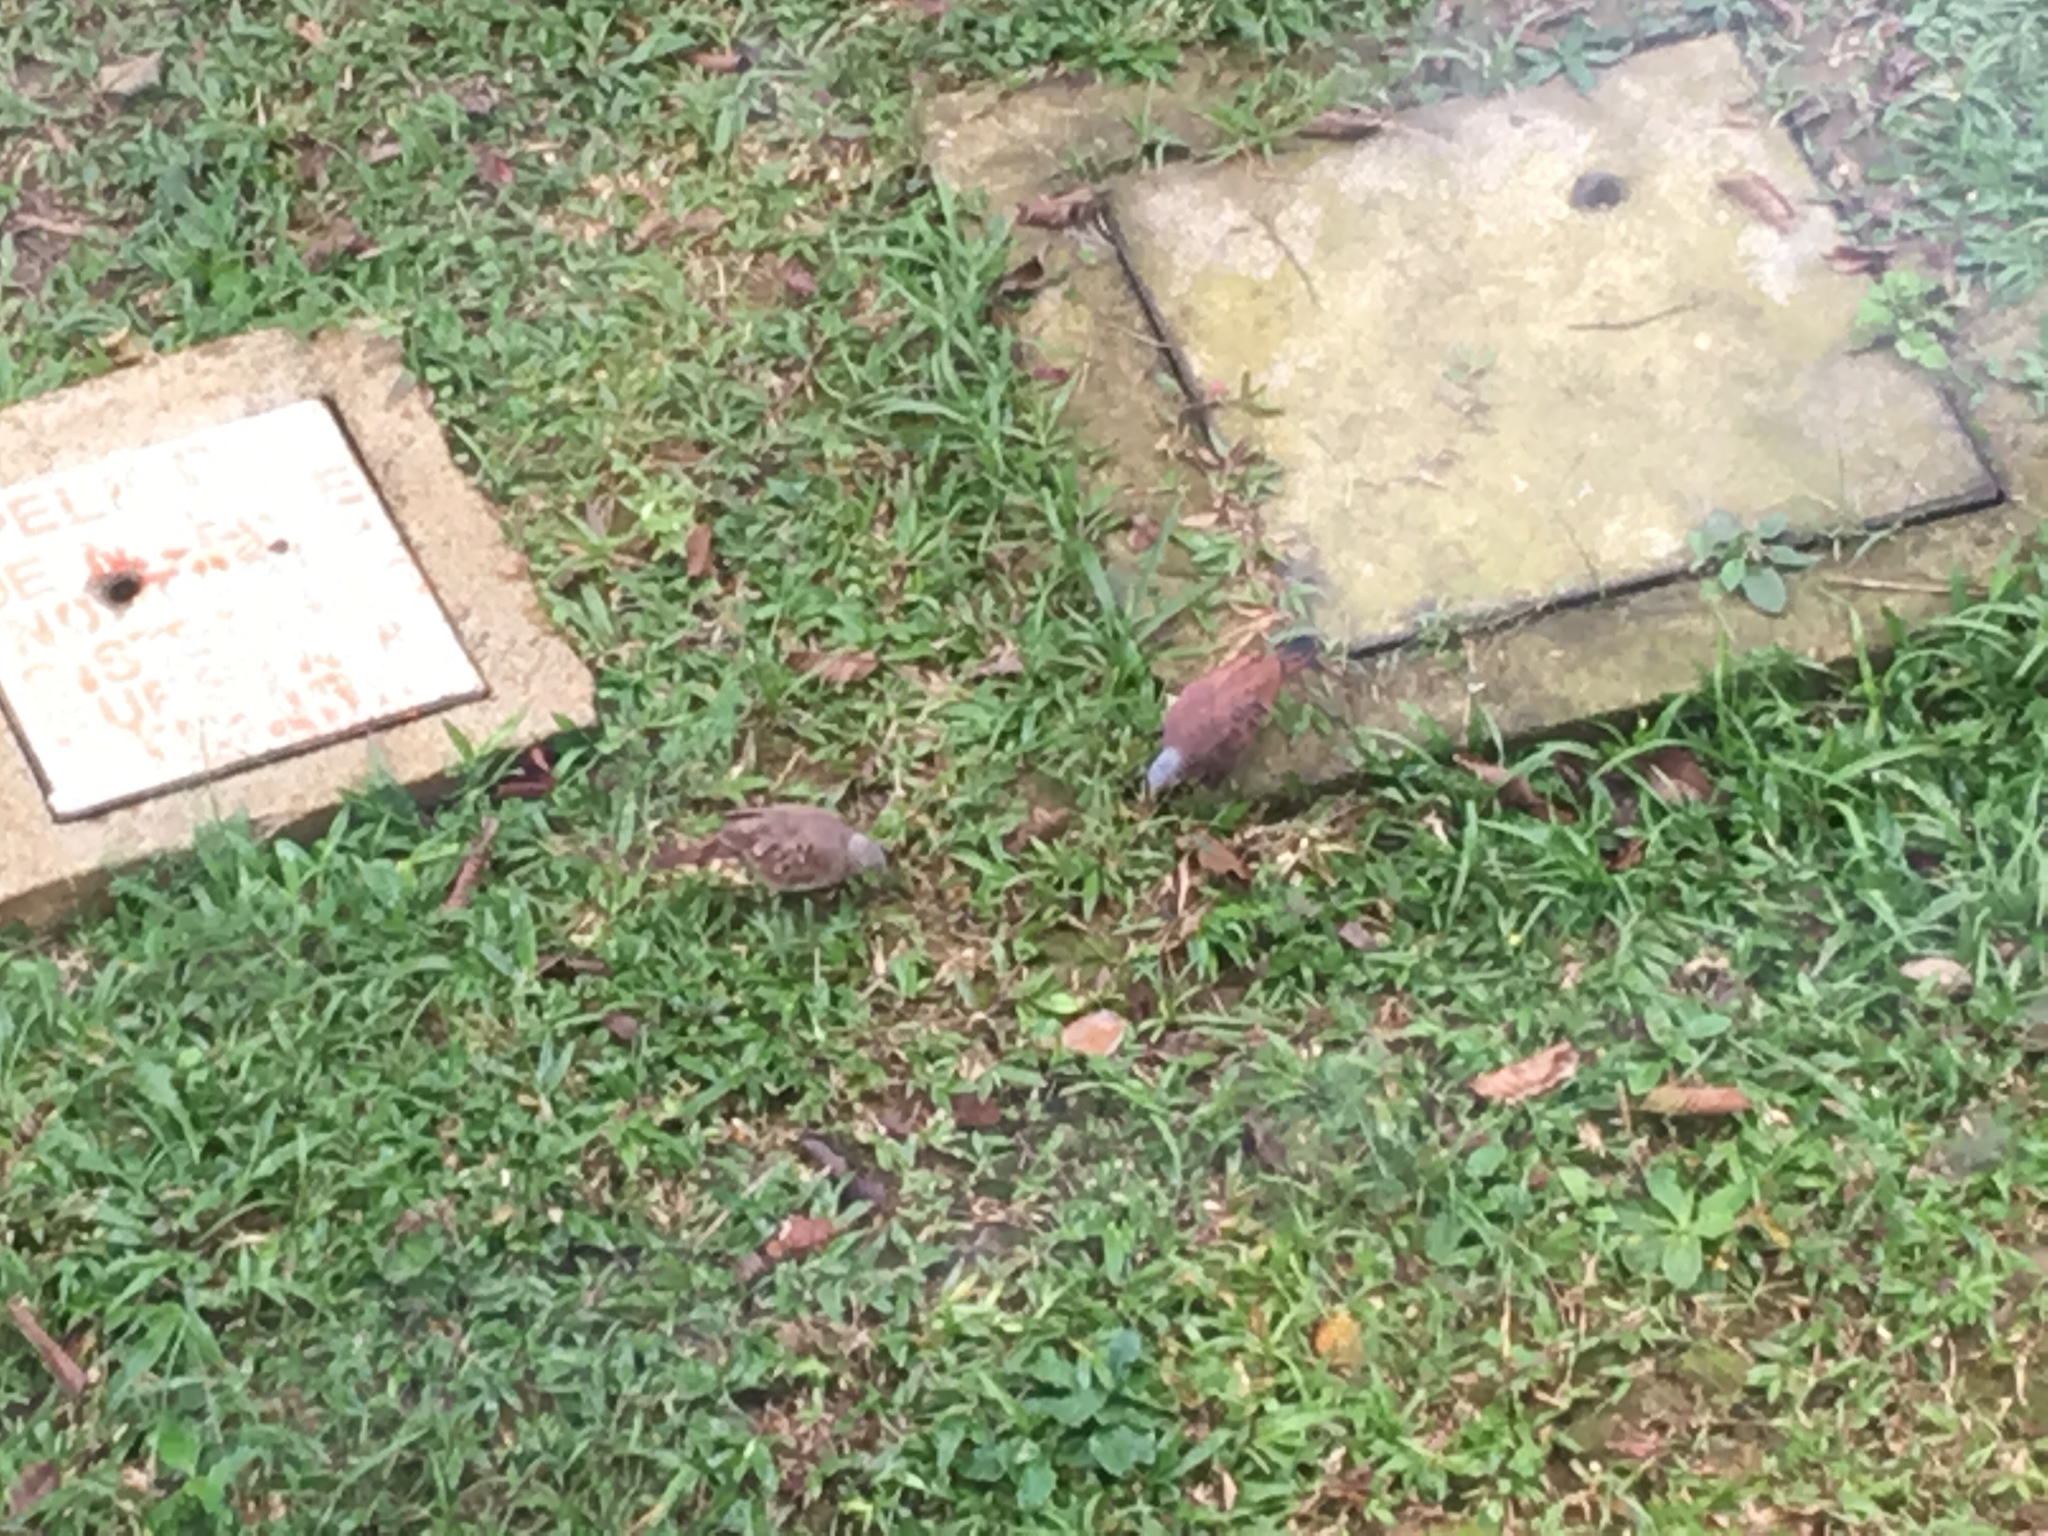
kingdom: Animalia
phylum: Chordata
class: Aves
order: Columbiformes
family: Columbidae
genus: Columbina
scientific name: Columbina talpacoti
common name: Ruddy ground dove
